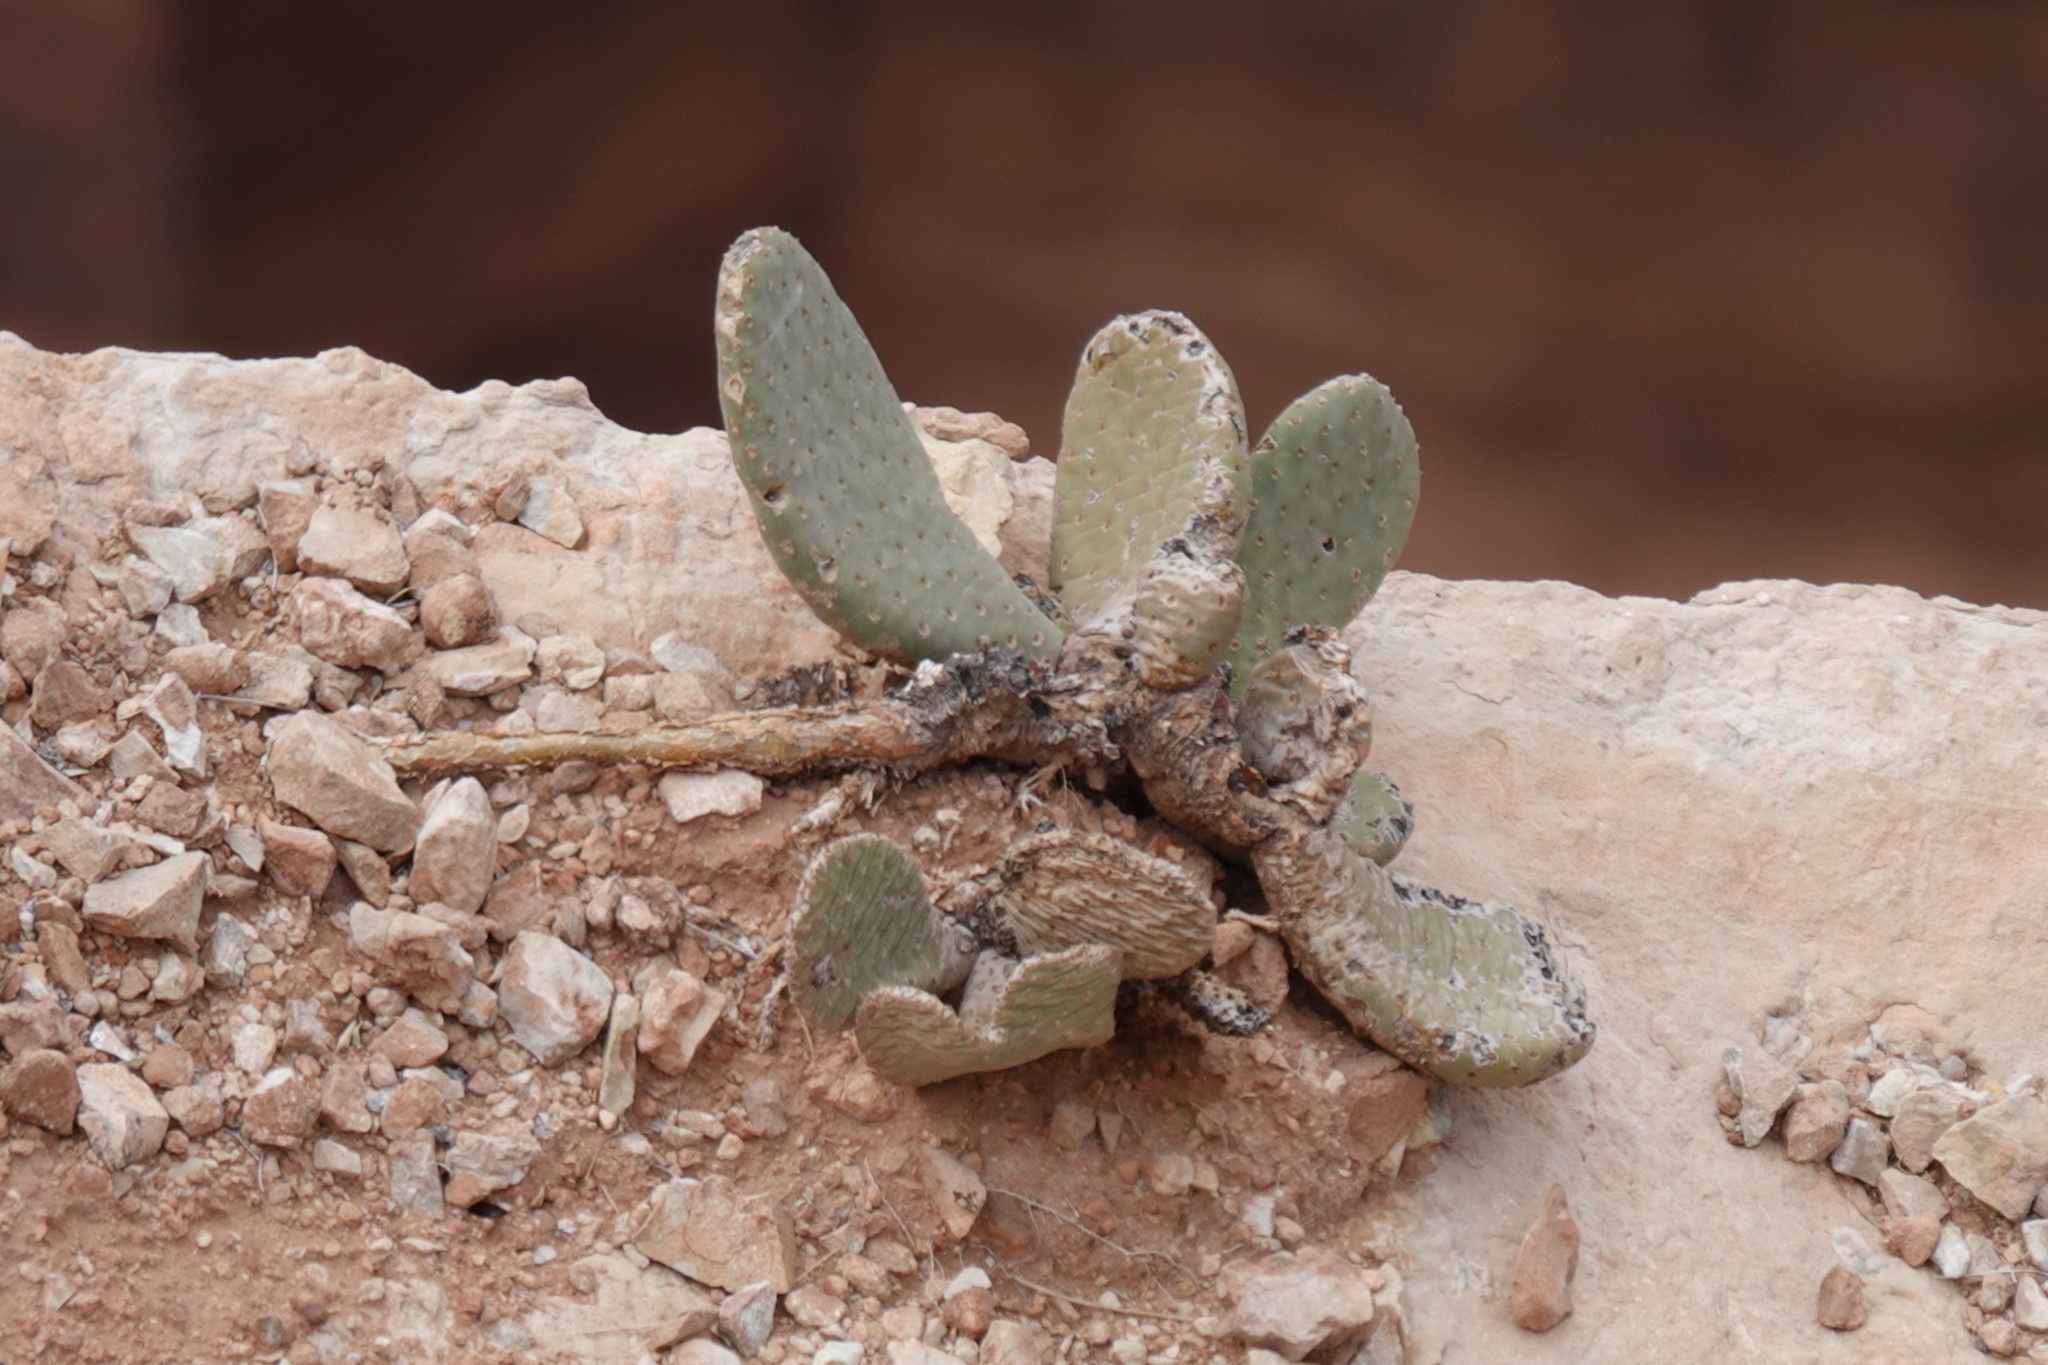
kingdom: Plantae
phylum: Tracheophyta
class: Magnoliopsida
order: Caryophyllales
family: Cactaceae
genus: Opuntia
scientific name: Opuntia basilaris
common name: Beavertail prickly-pear
